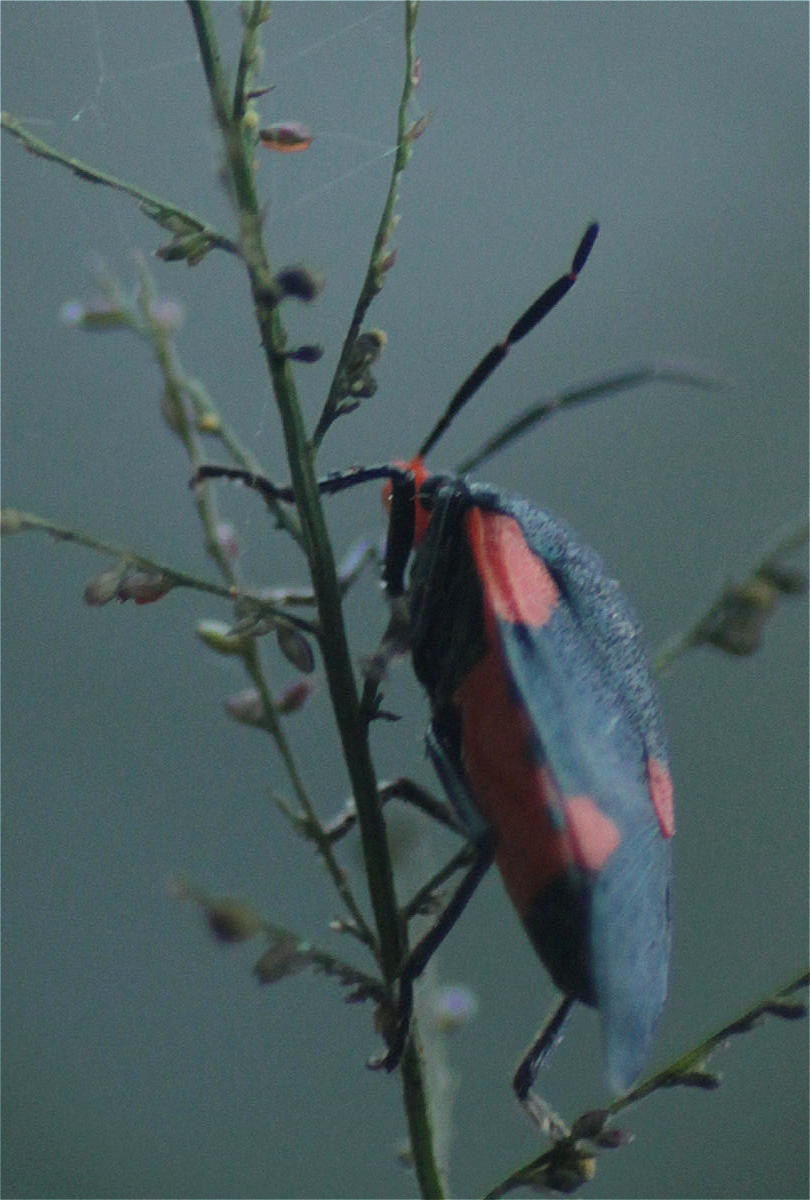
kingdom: Animalia
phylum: Arthropoda
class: Insecta
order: Hemiptera
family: Pentatomidae
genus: Arocera
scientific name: Arocera elongata
